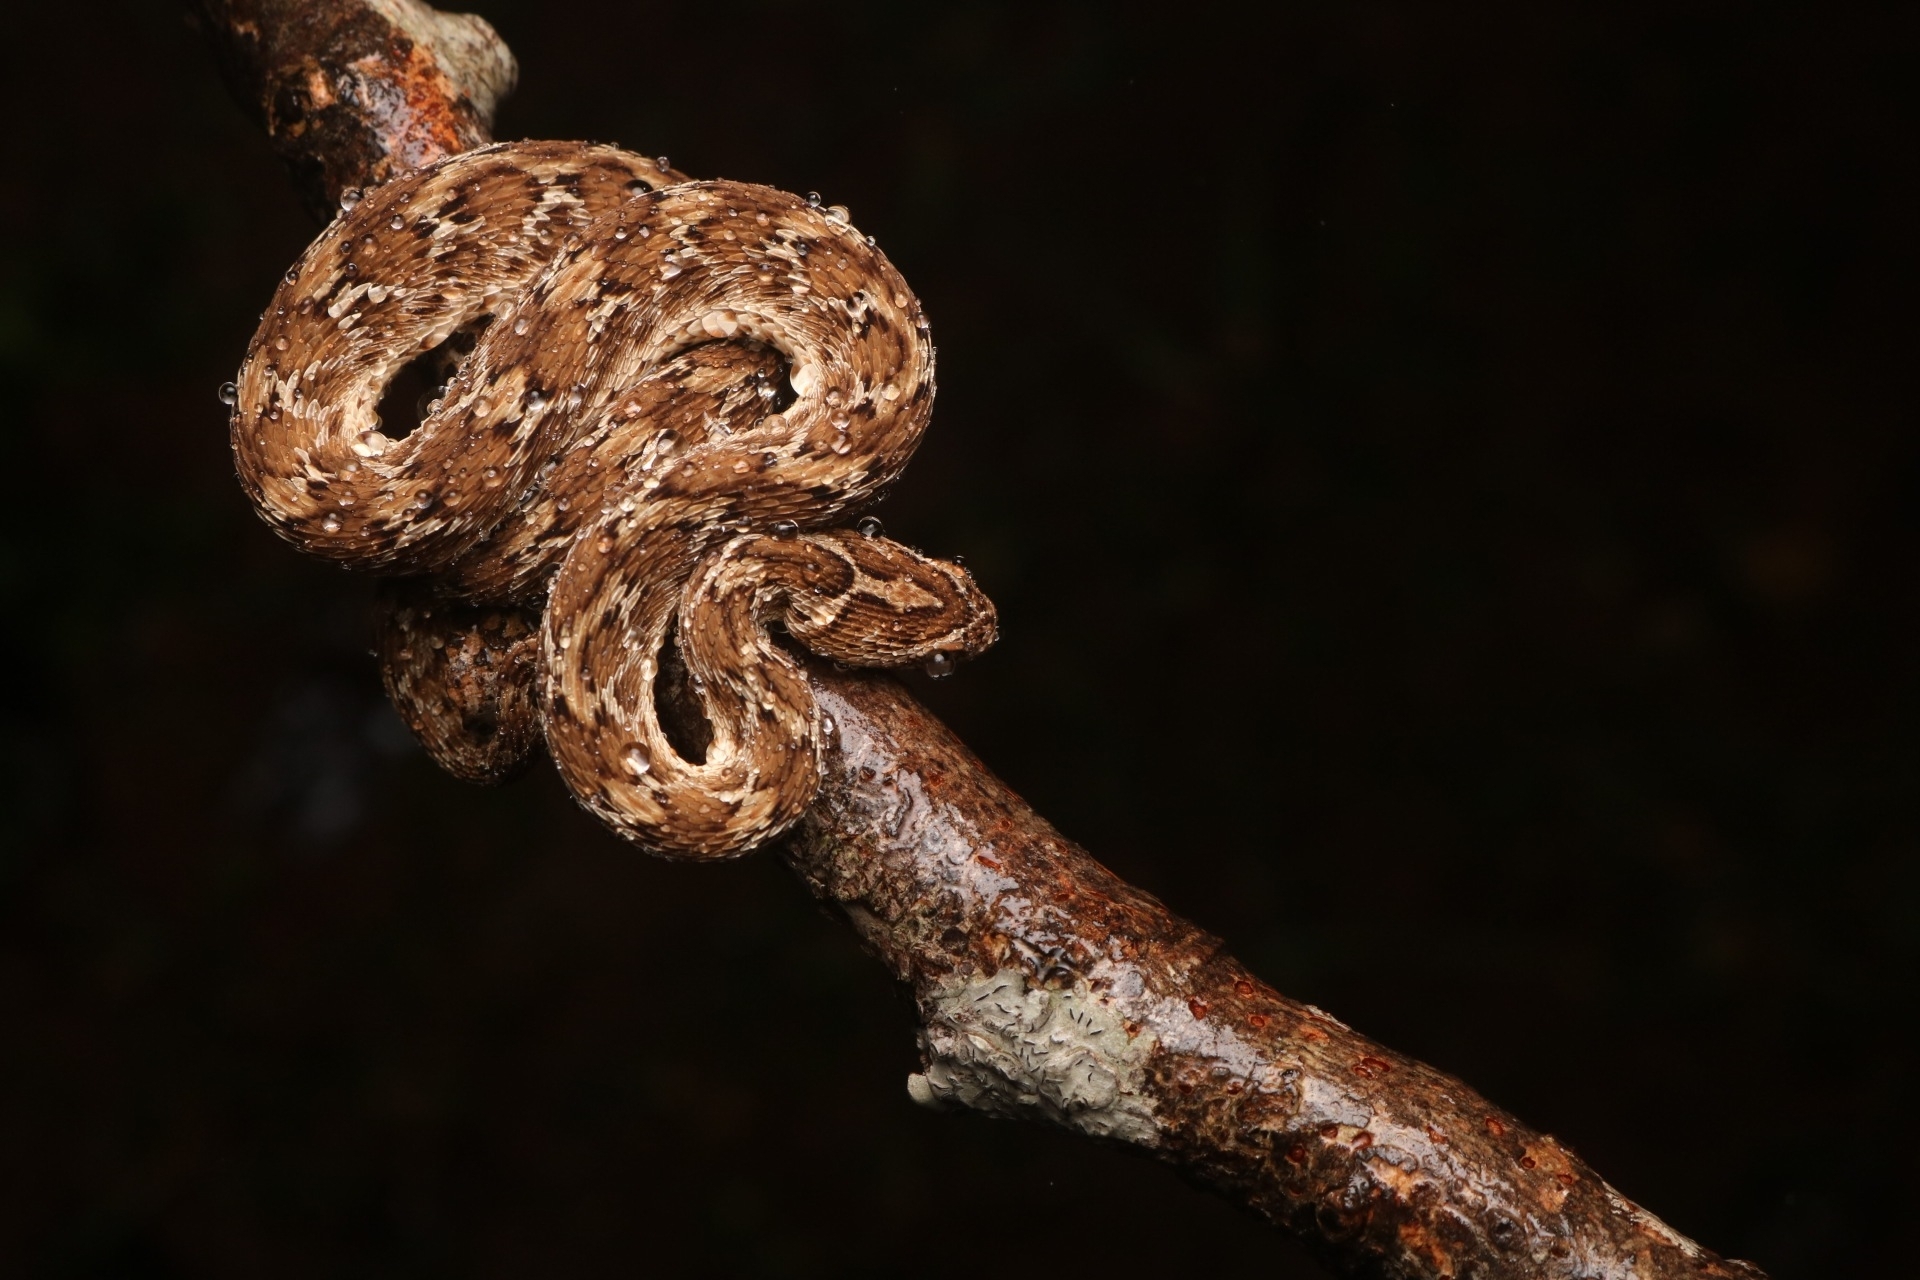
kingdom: Animalia
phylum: Chordata
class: Squamata
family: Viperidae
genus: Echis
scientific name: Echis carinatus
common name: Saw-scaled viper
